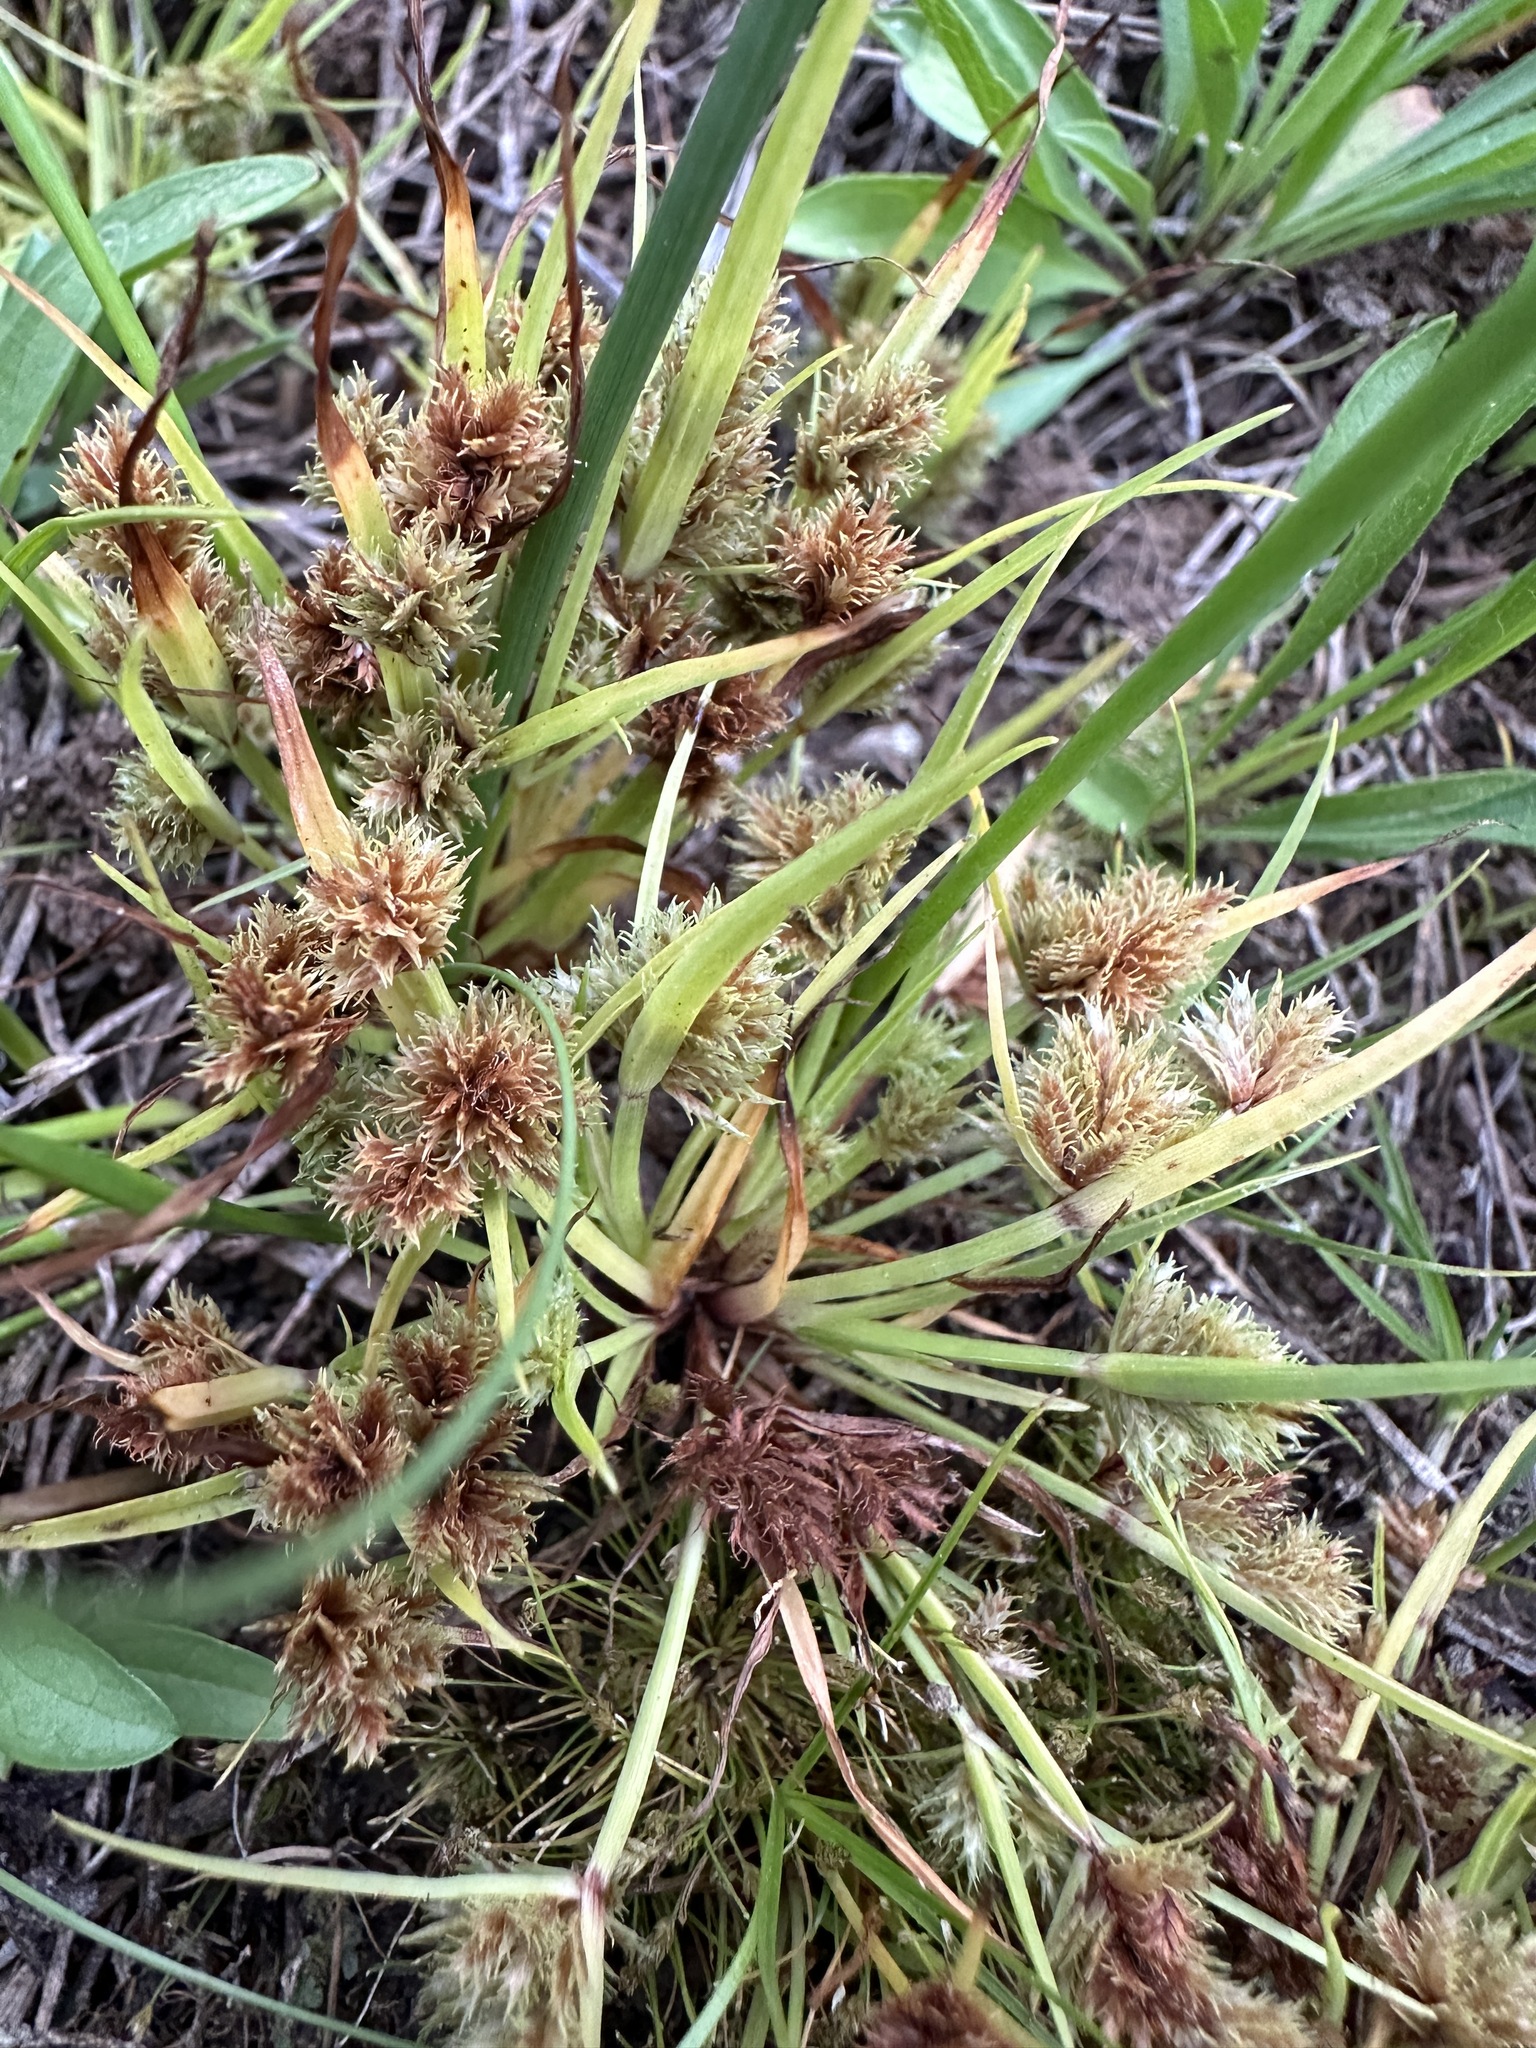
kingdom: Plantae
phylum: Tracheophyta
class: Liliopsida
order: Poales
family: Cyperaceae
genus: Cyperus
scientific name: Cyperus squarrosus
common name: Awned cyperus
